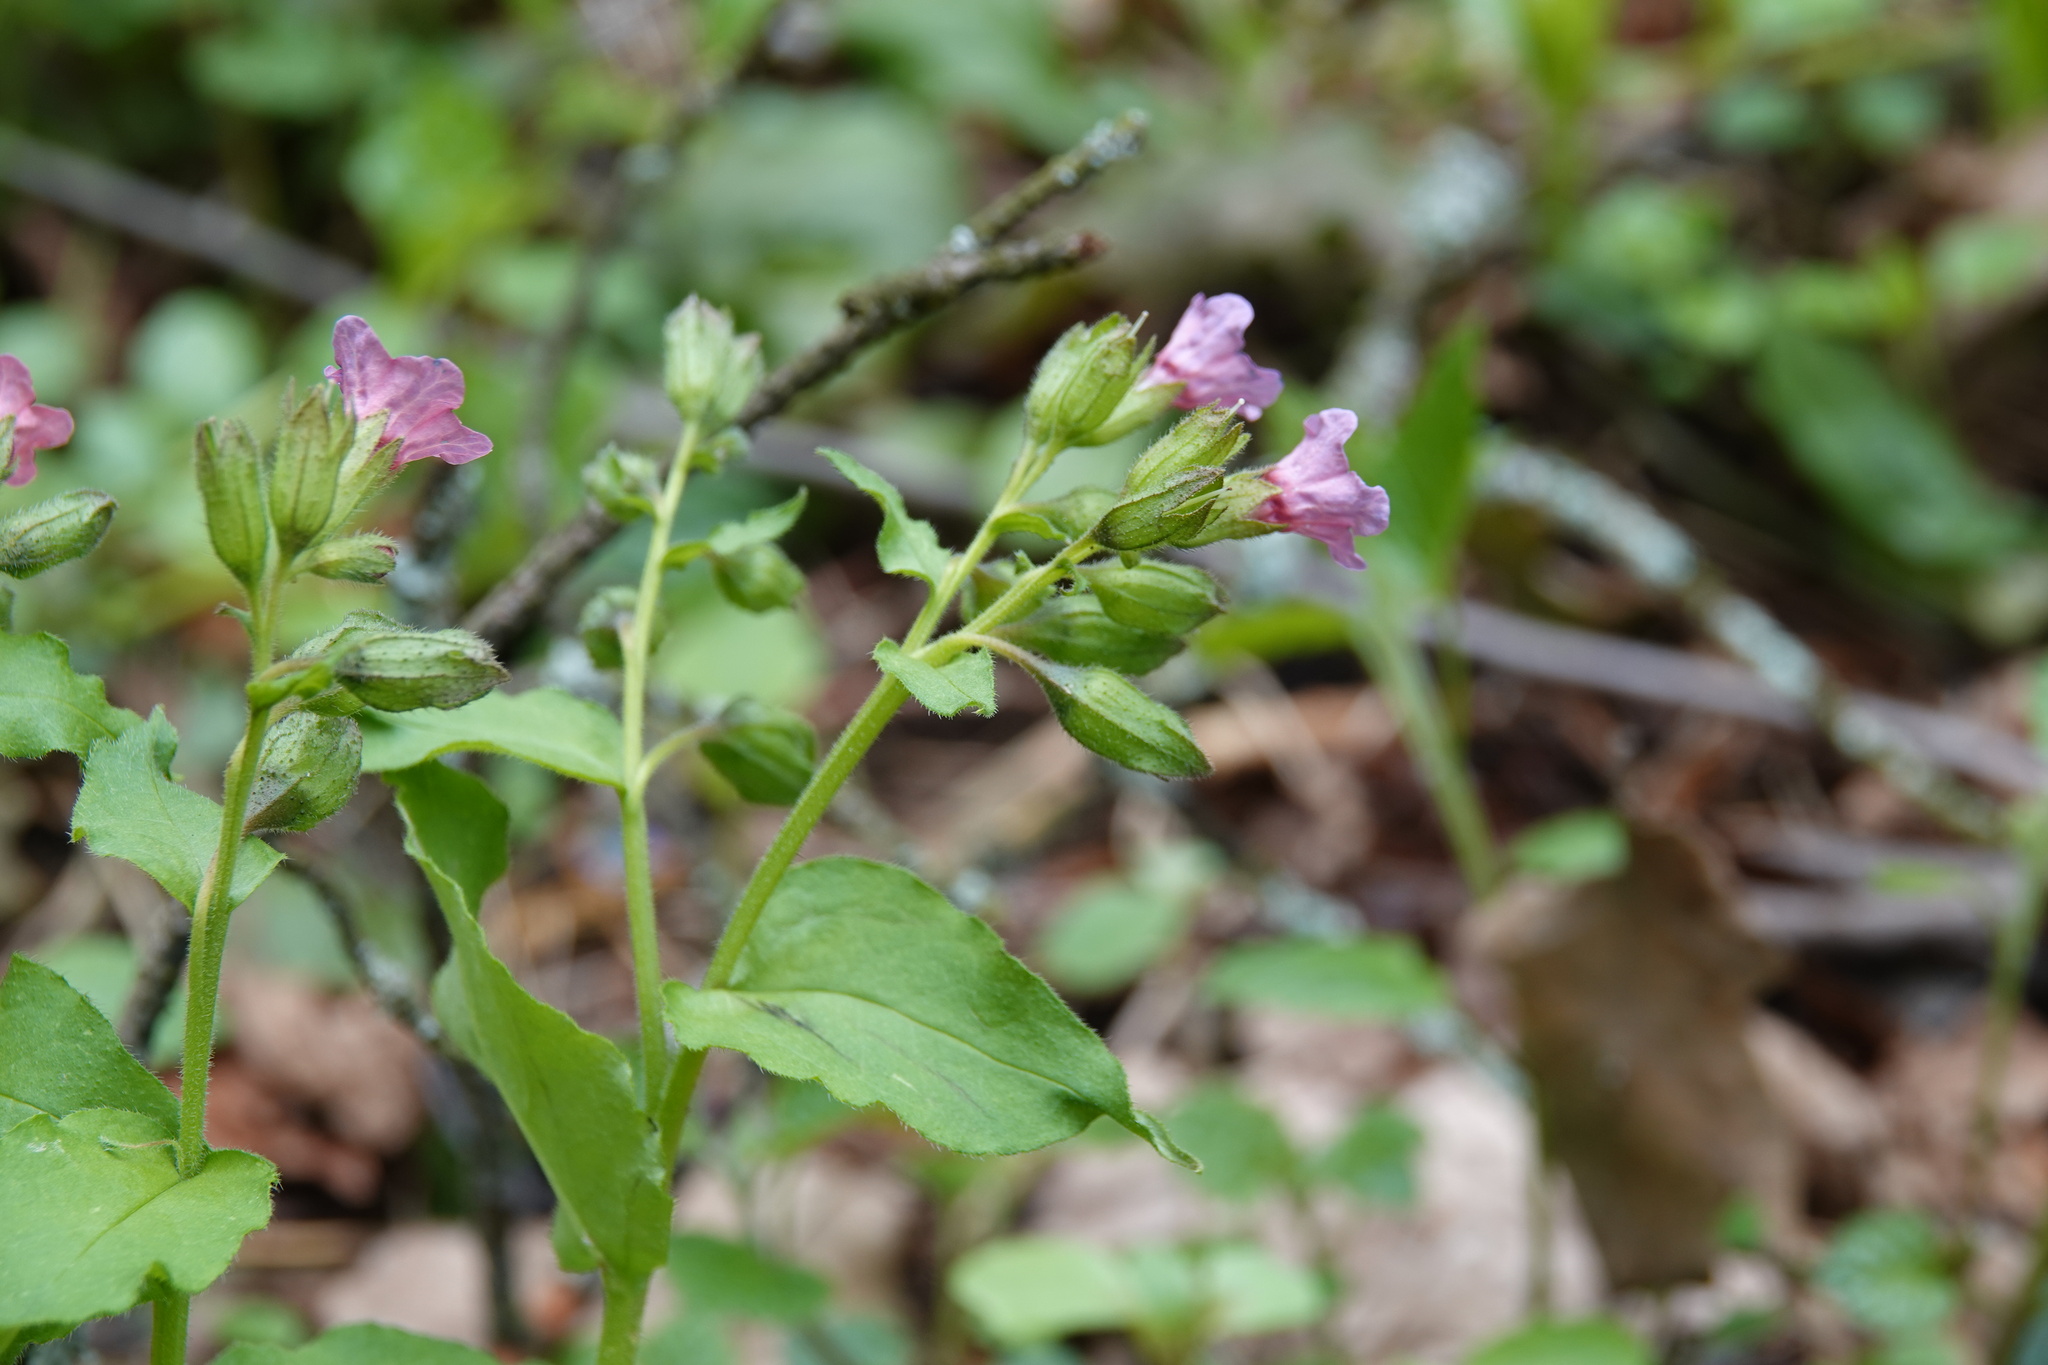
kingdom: Plantae
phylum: Tracheophyta
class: Magnoliopsida
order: Boraginales
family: Boraginaceae
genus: Pulmonaria
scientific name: Pulmonaria obscura
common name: Suffolk lungwort
